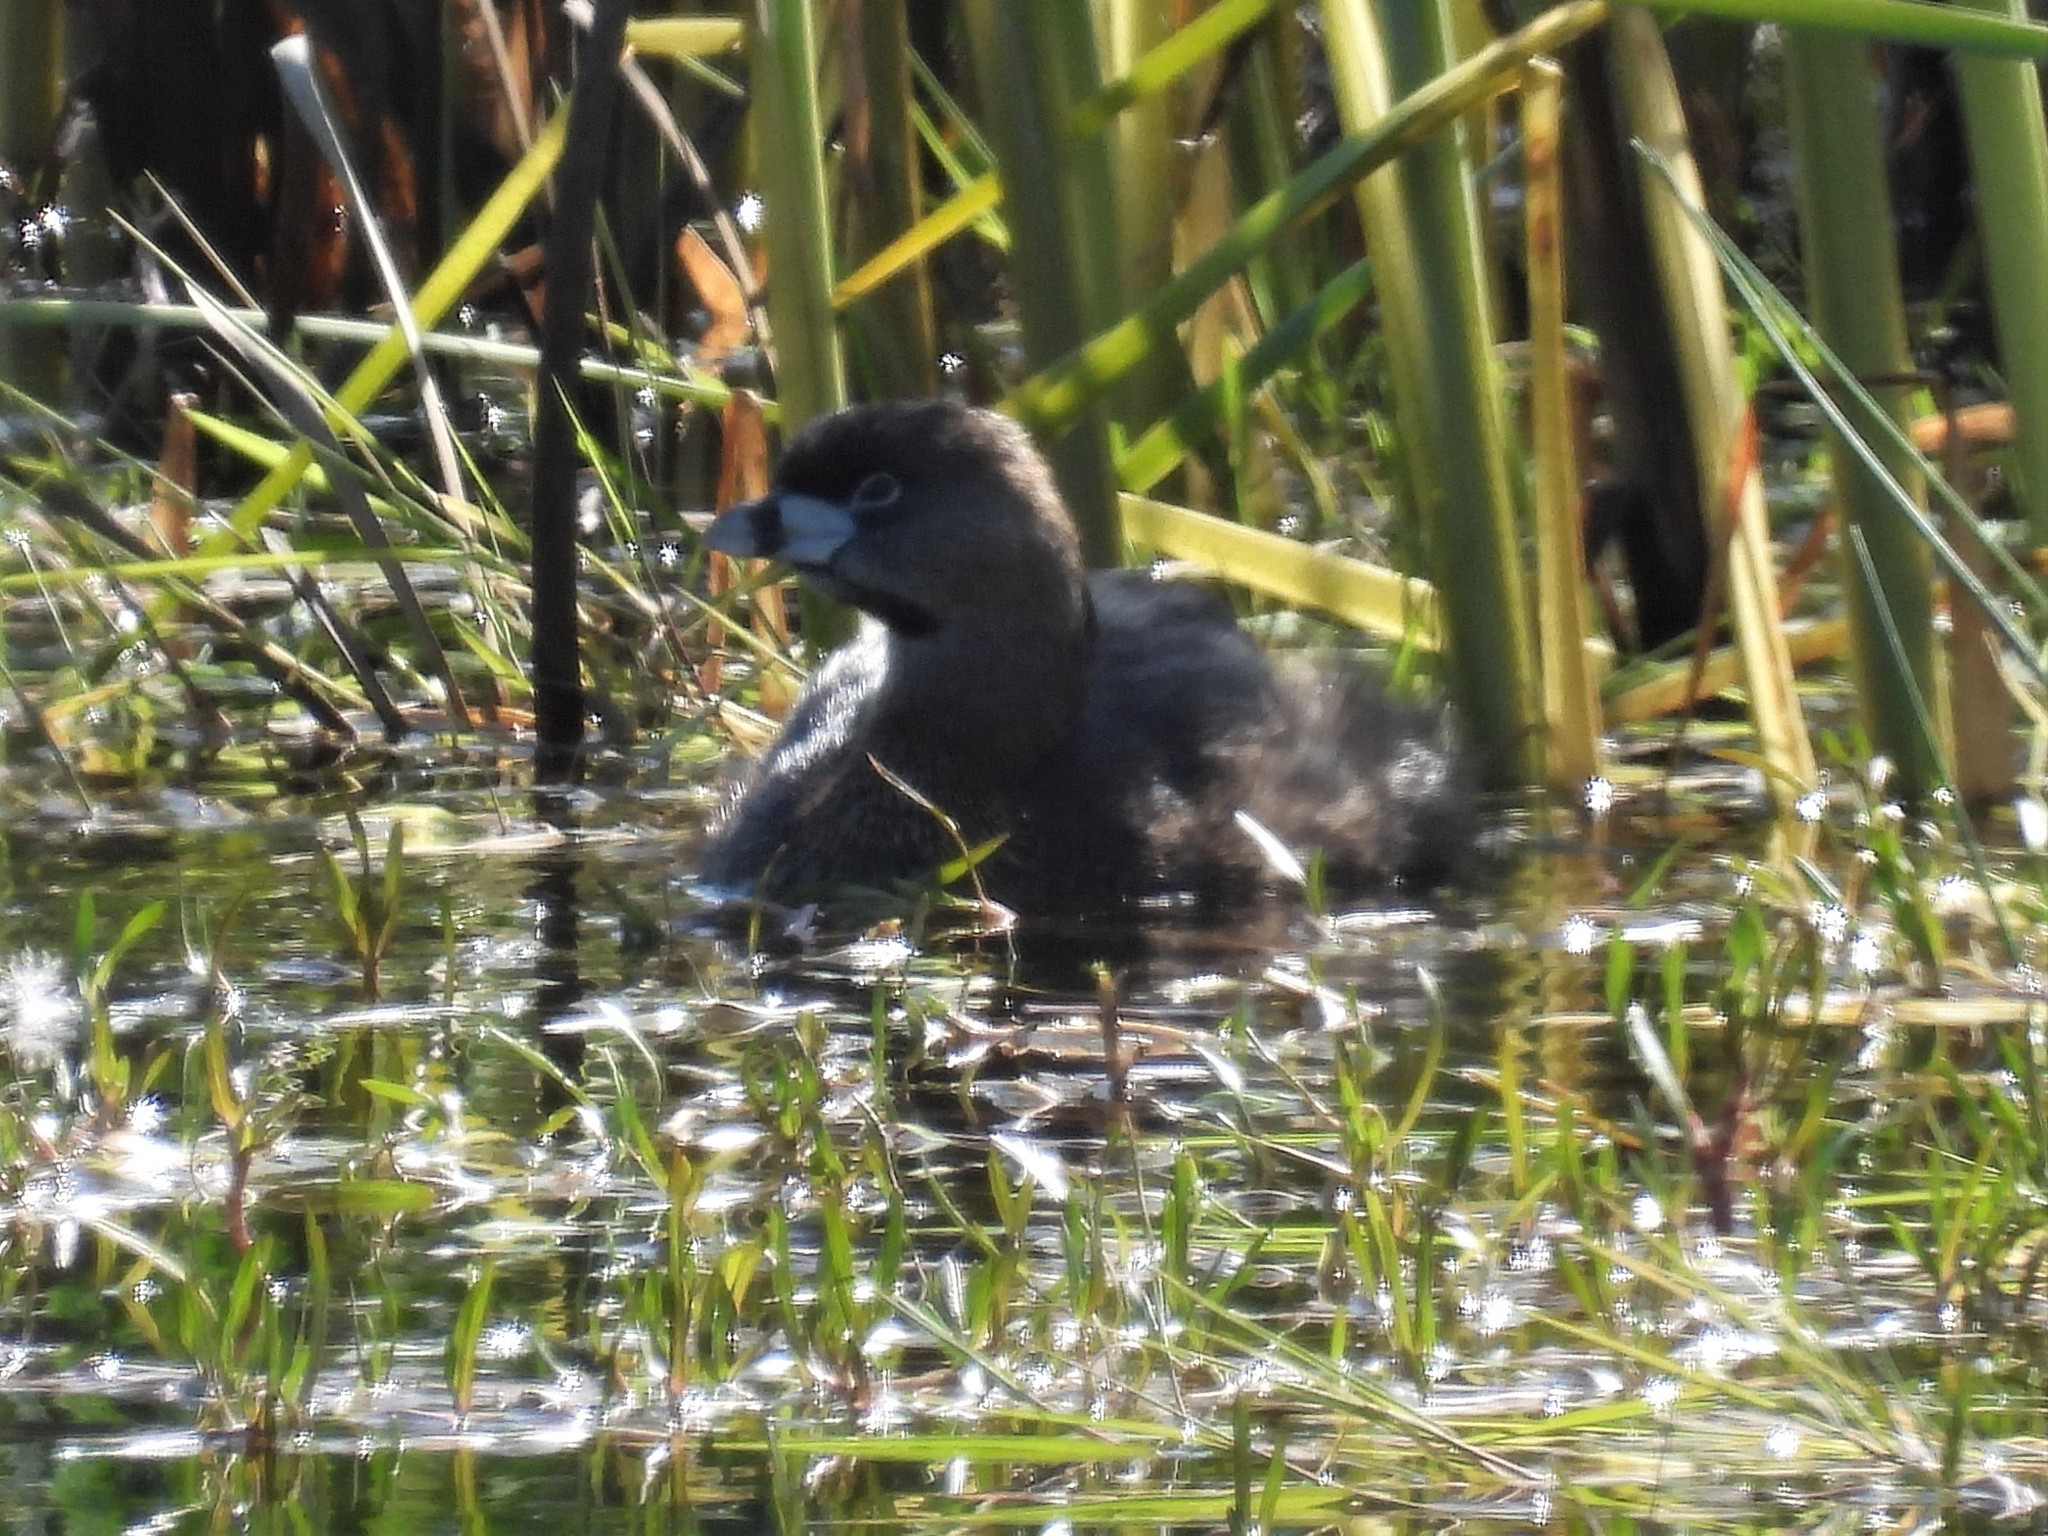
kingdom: Animalia
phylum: Chordata
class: Aves
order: Podicipediformes
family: Podicipedidae
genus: Podilymbus
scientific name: Podilymbus podiceps
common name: Pied-billed grebe
